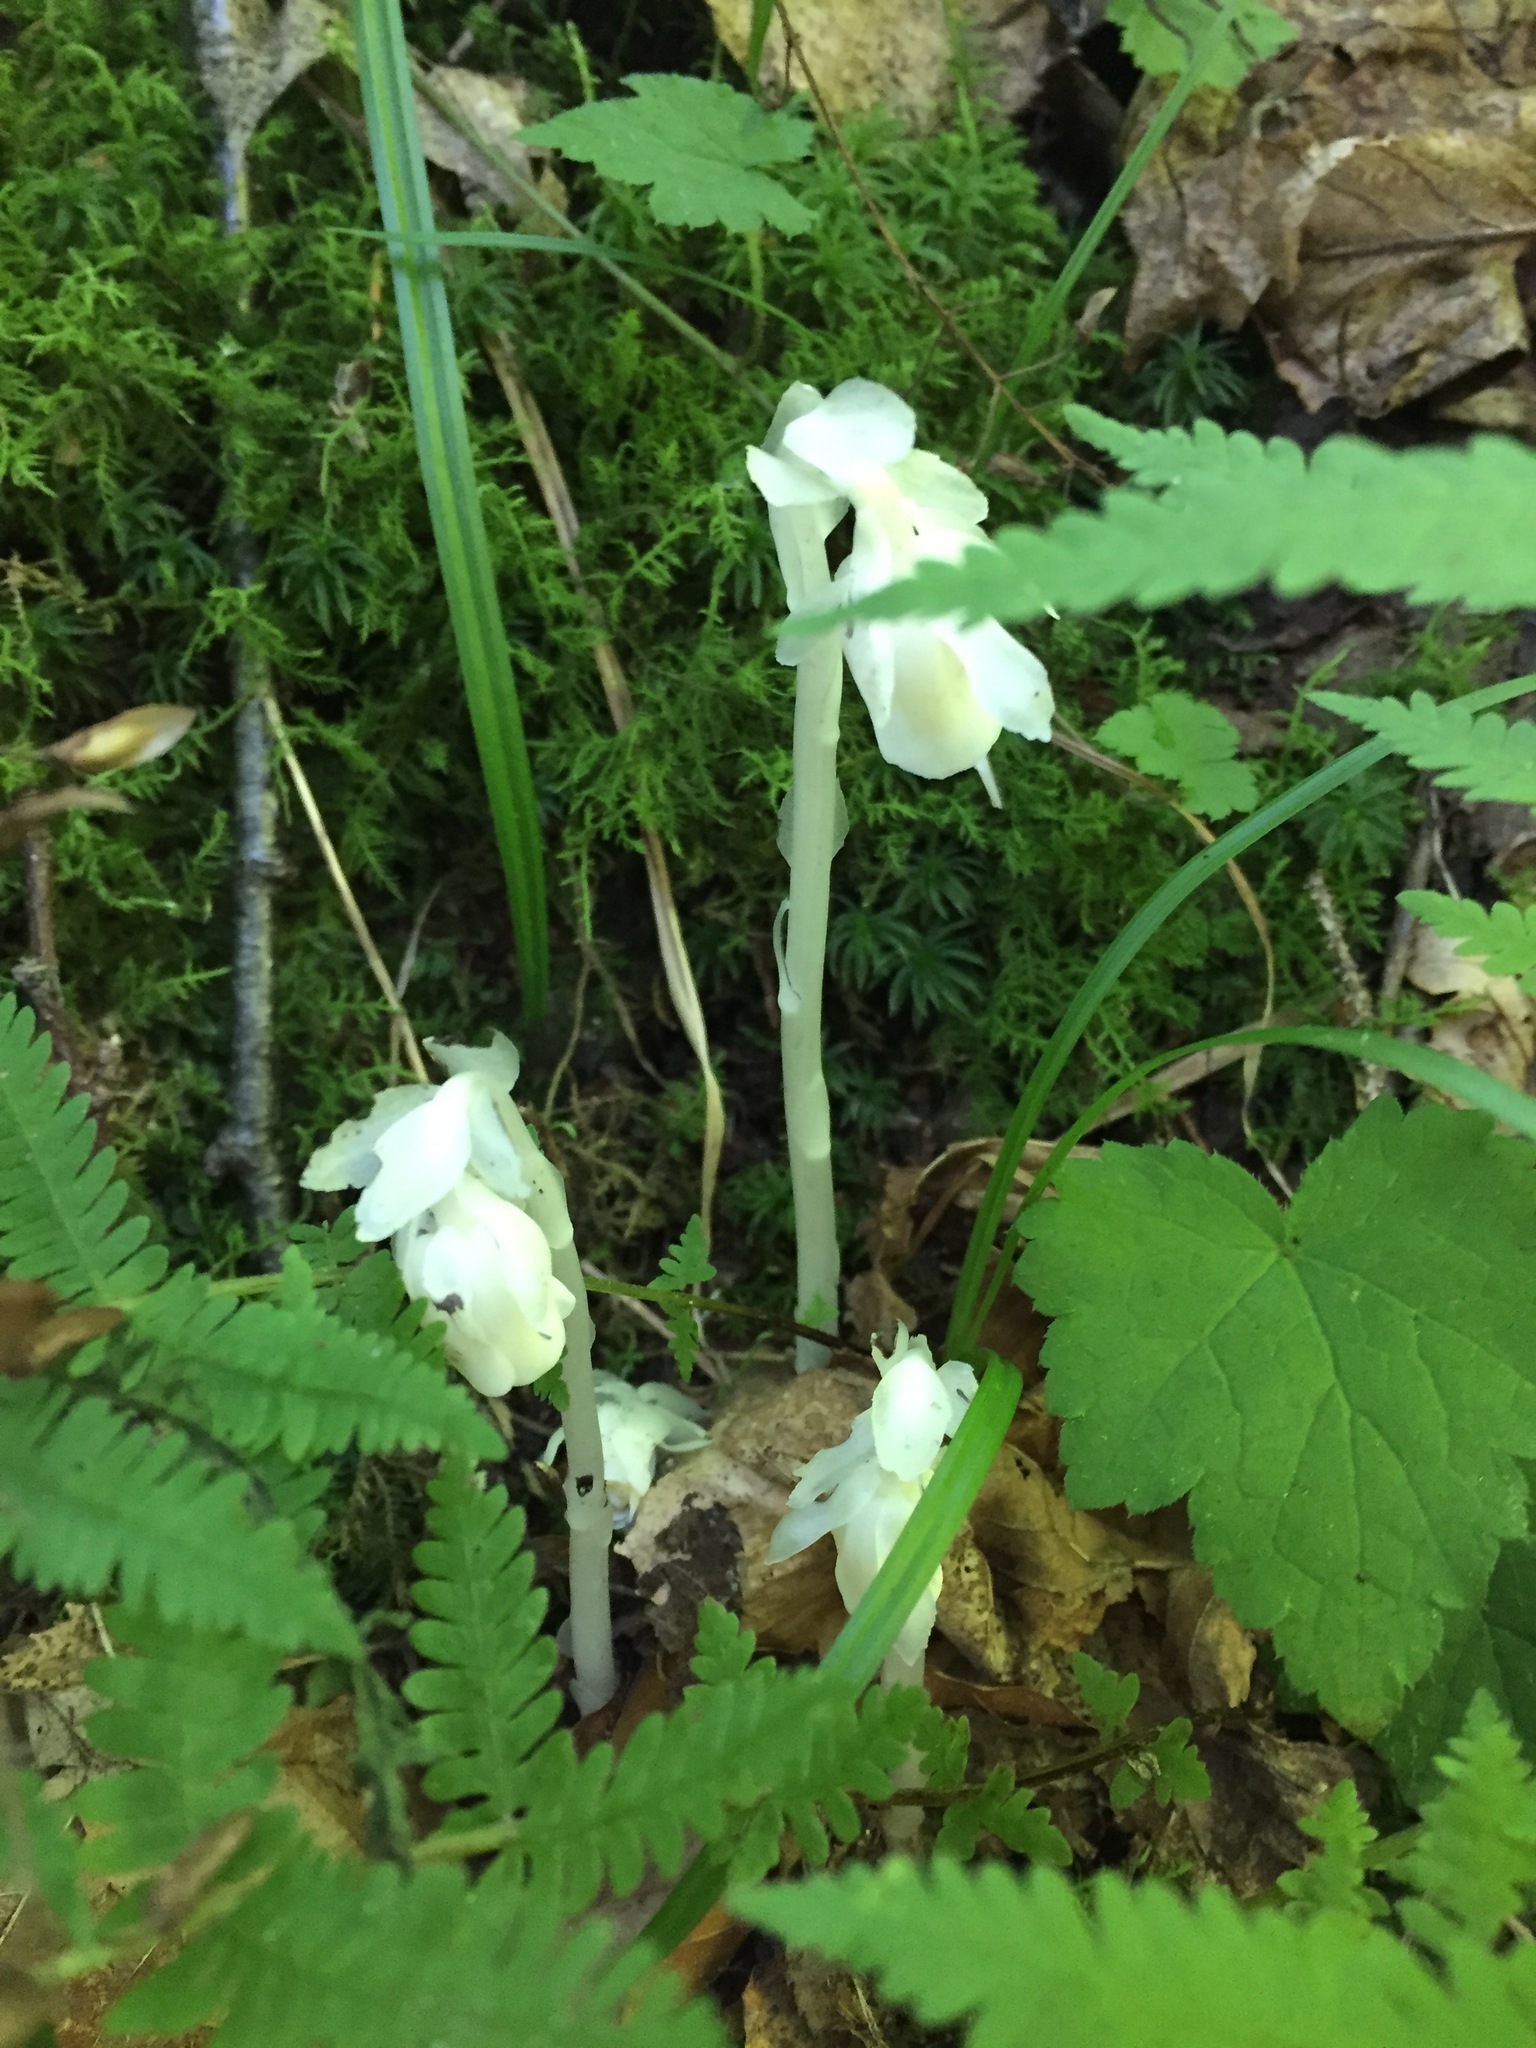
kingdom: Plantae
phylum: Tracheophyta
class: Magnoliopsida
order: Ericales
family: Ericaceae
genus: Monotropa
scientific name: Monotropa uniflora
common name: Convulsion root
